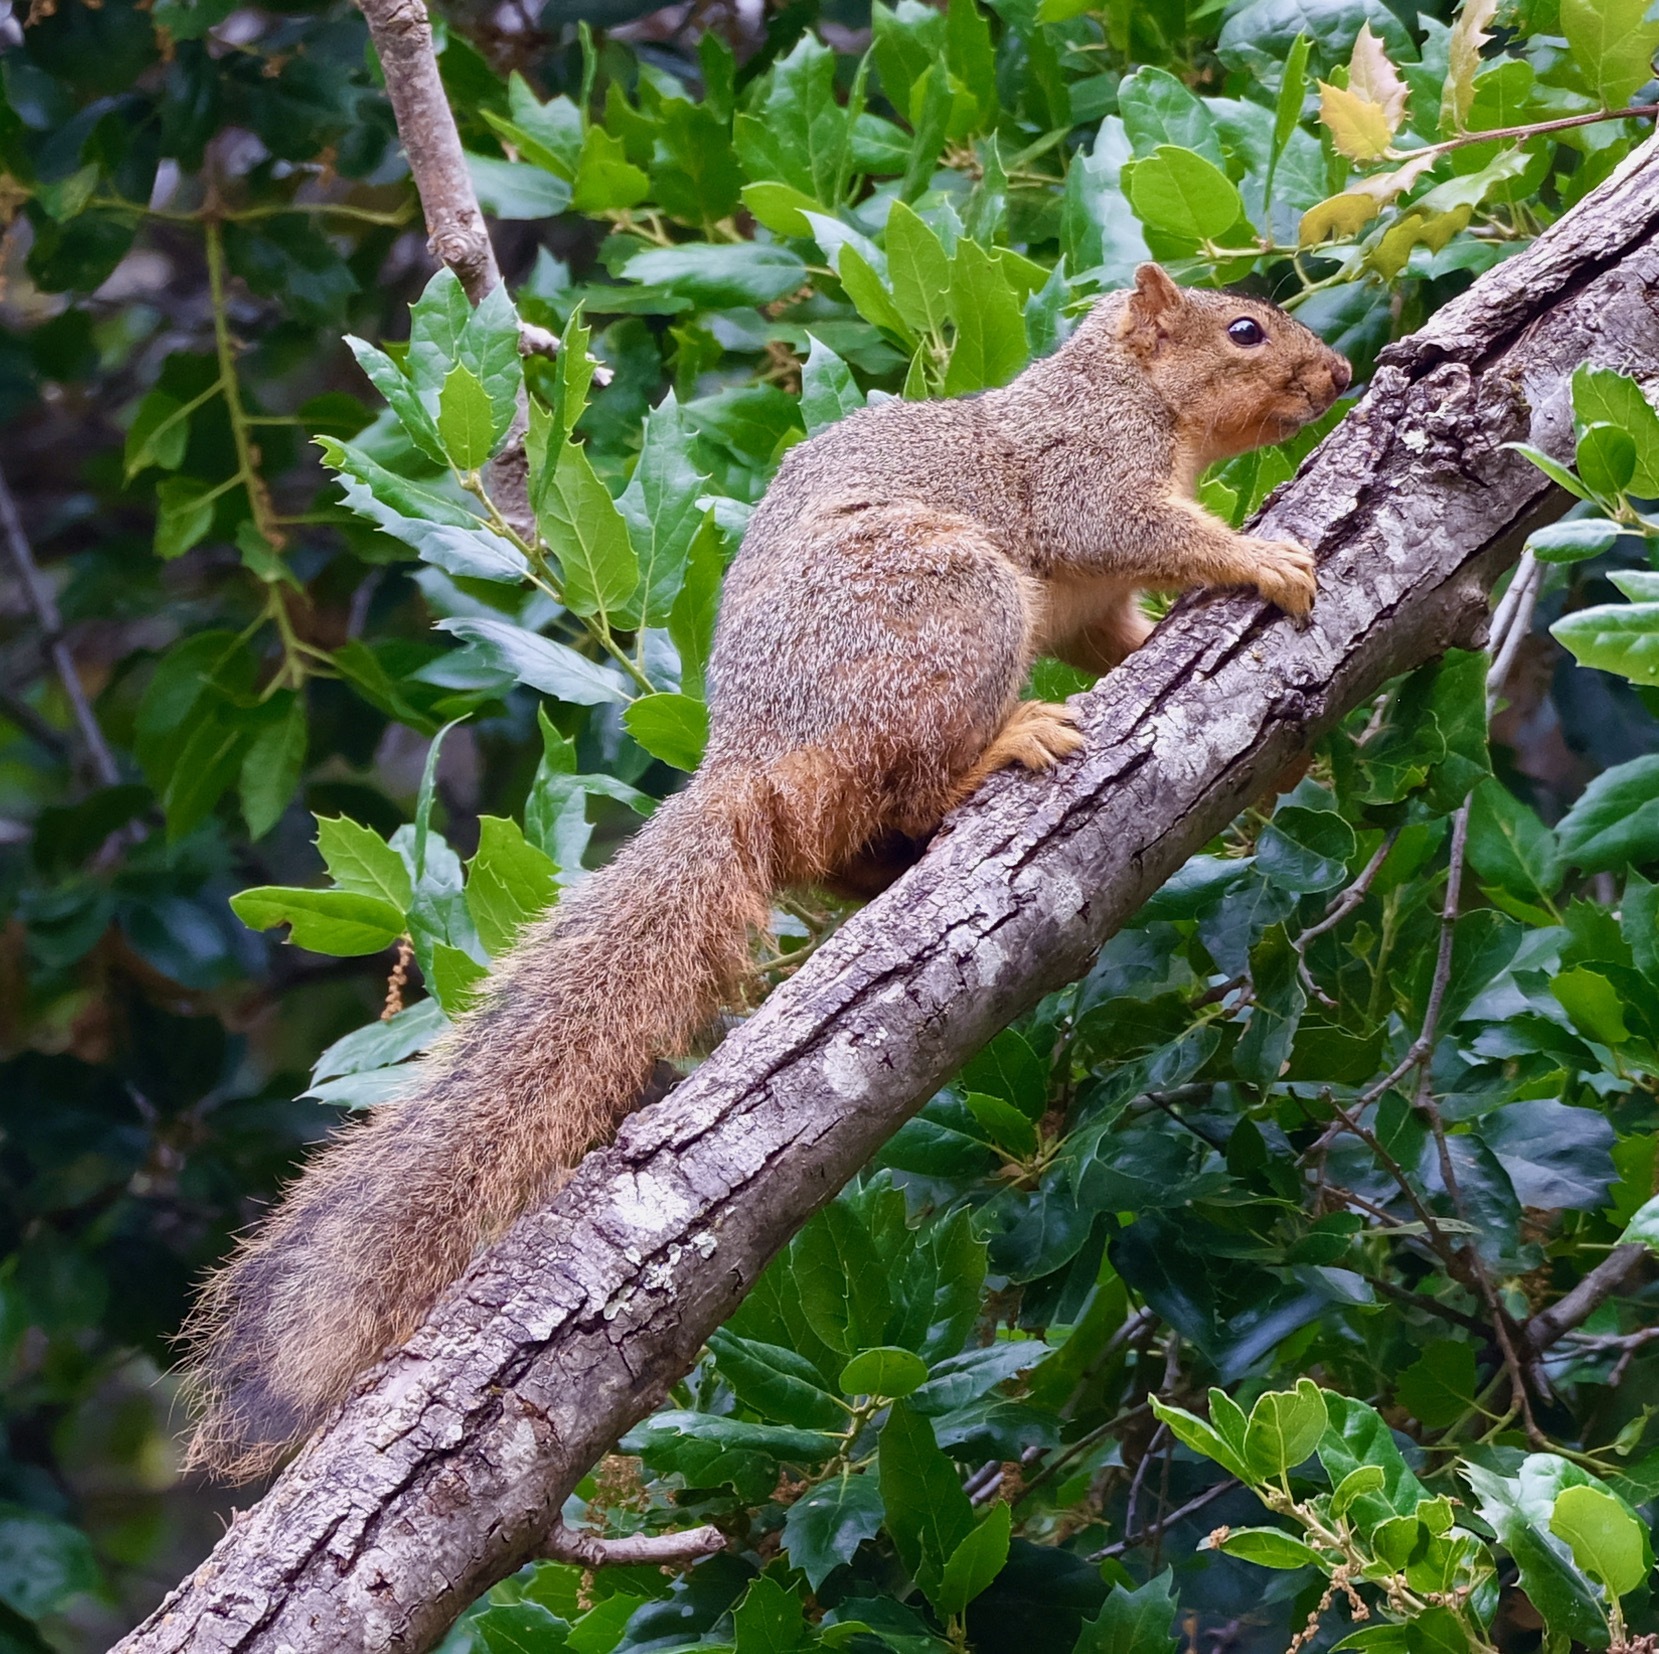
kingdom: Animalia
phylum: Chordata
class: Mammalia
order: Rodentia
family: Sciuridae
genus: Sciurus
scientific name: Sciurus niger
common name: Fox squirrel
